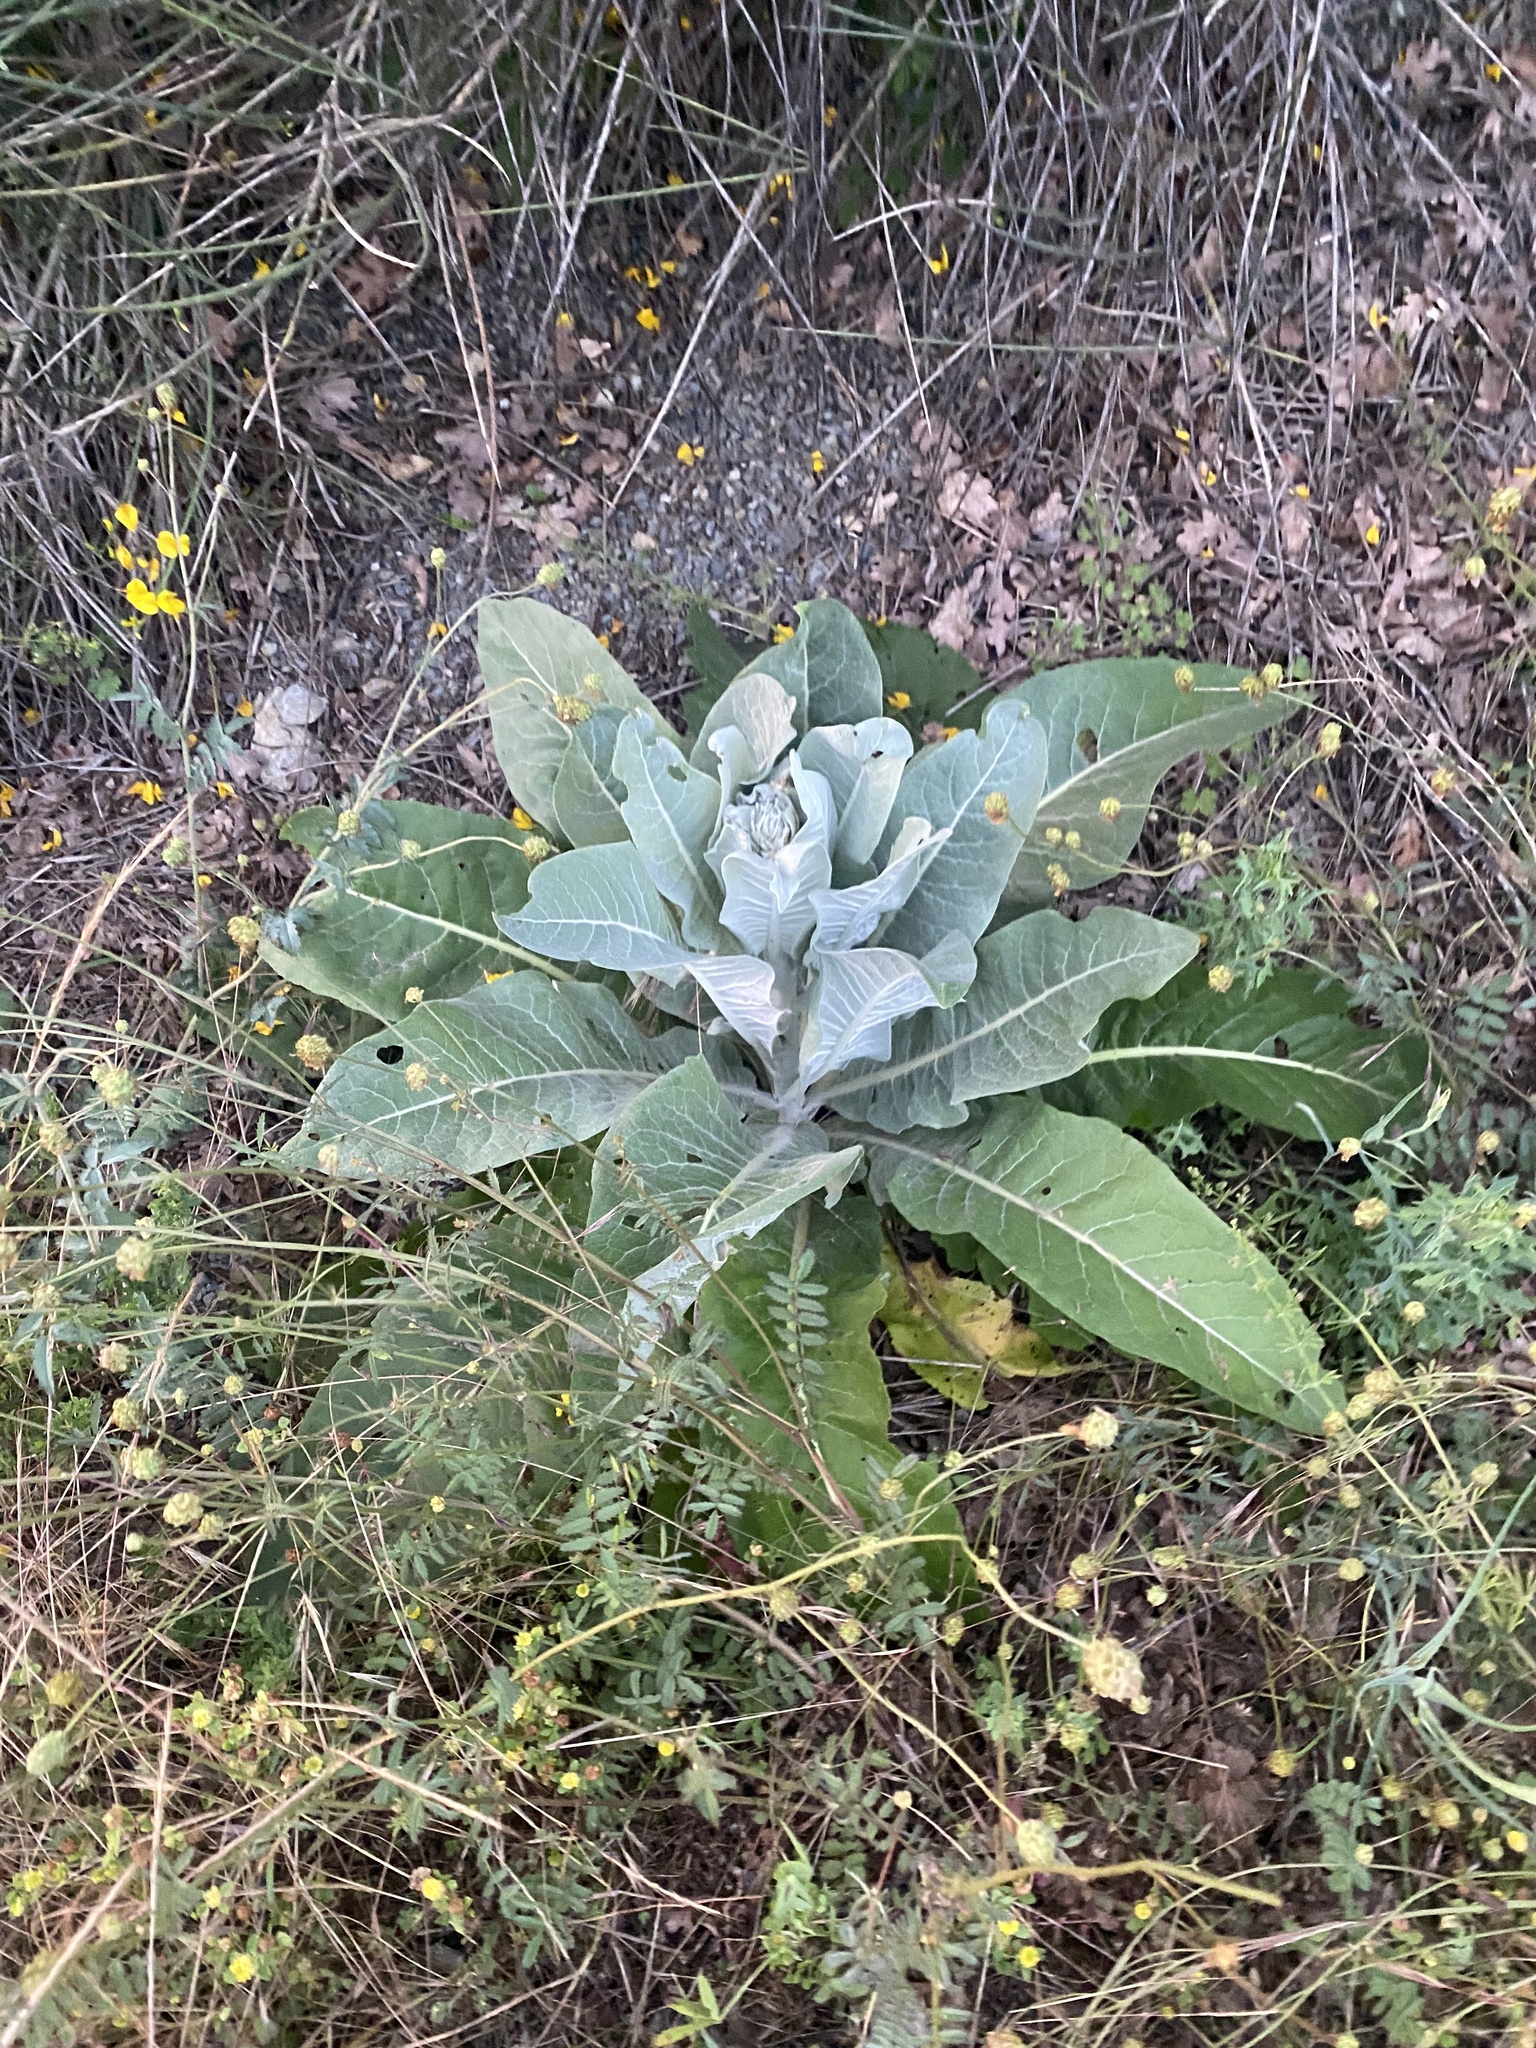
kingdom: Plantae
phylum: Tracheophyta
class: Magnoliopsida
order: Lamiales
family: Scrophulariaceae
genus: Verbascum
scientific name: Verbascum gnaphalodes
